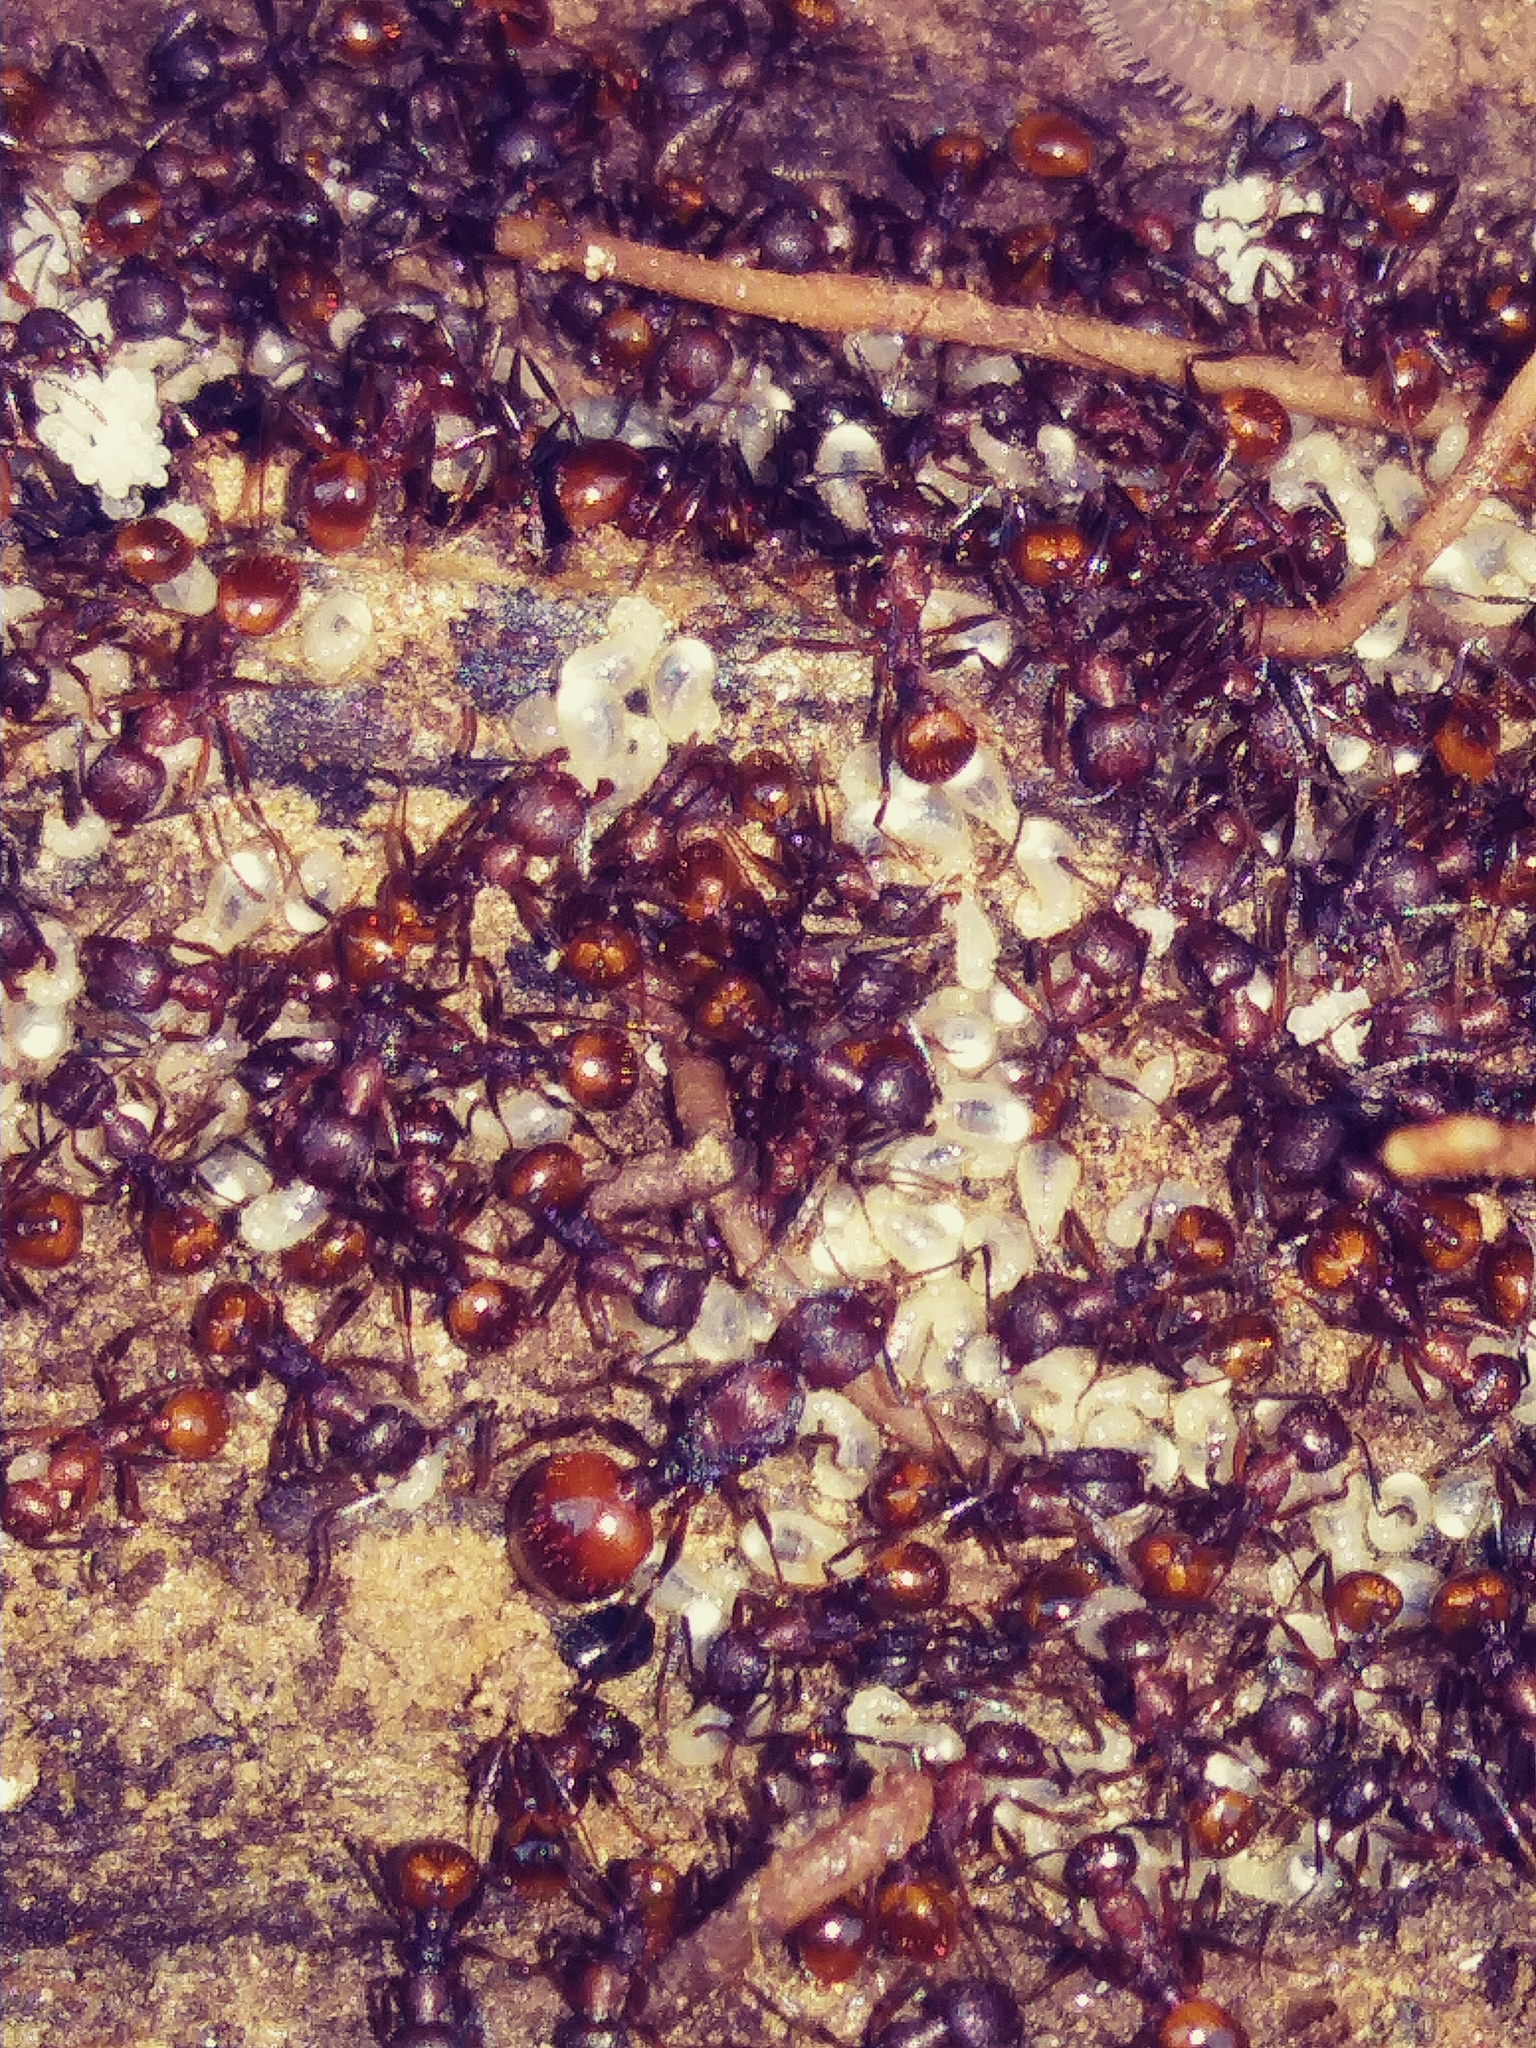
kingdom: Animalia
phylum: Arthropoda
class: Insecta
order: Hymenoptera
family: Formicidae
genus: Aphaenogaster
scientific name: Aphaenogaster fulva
